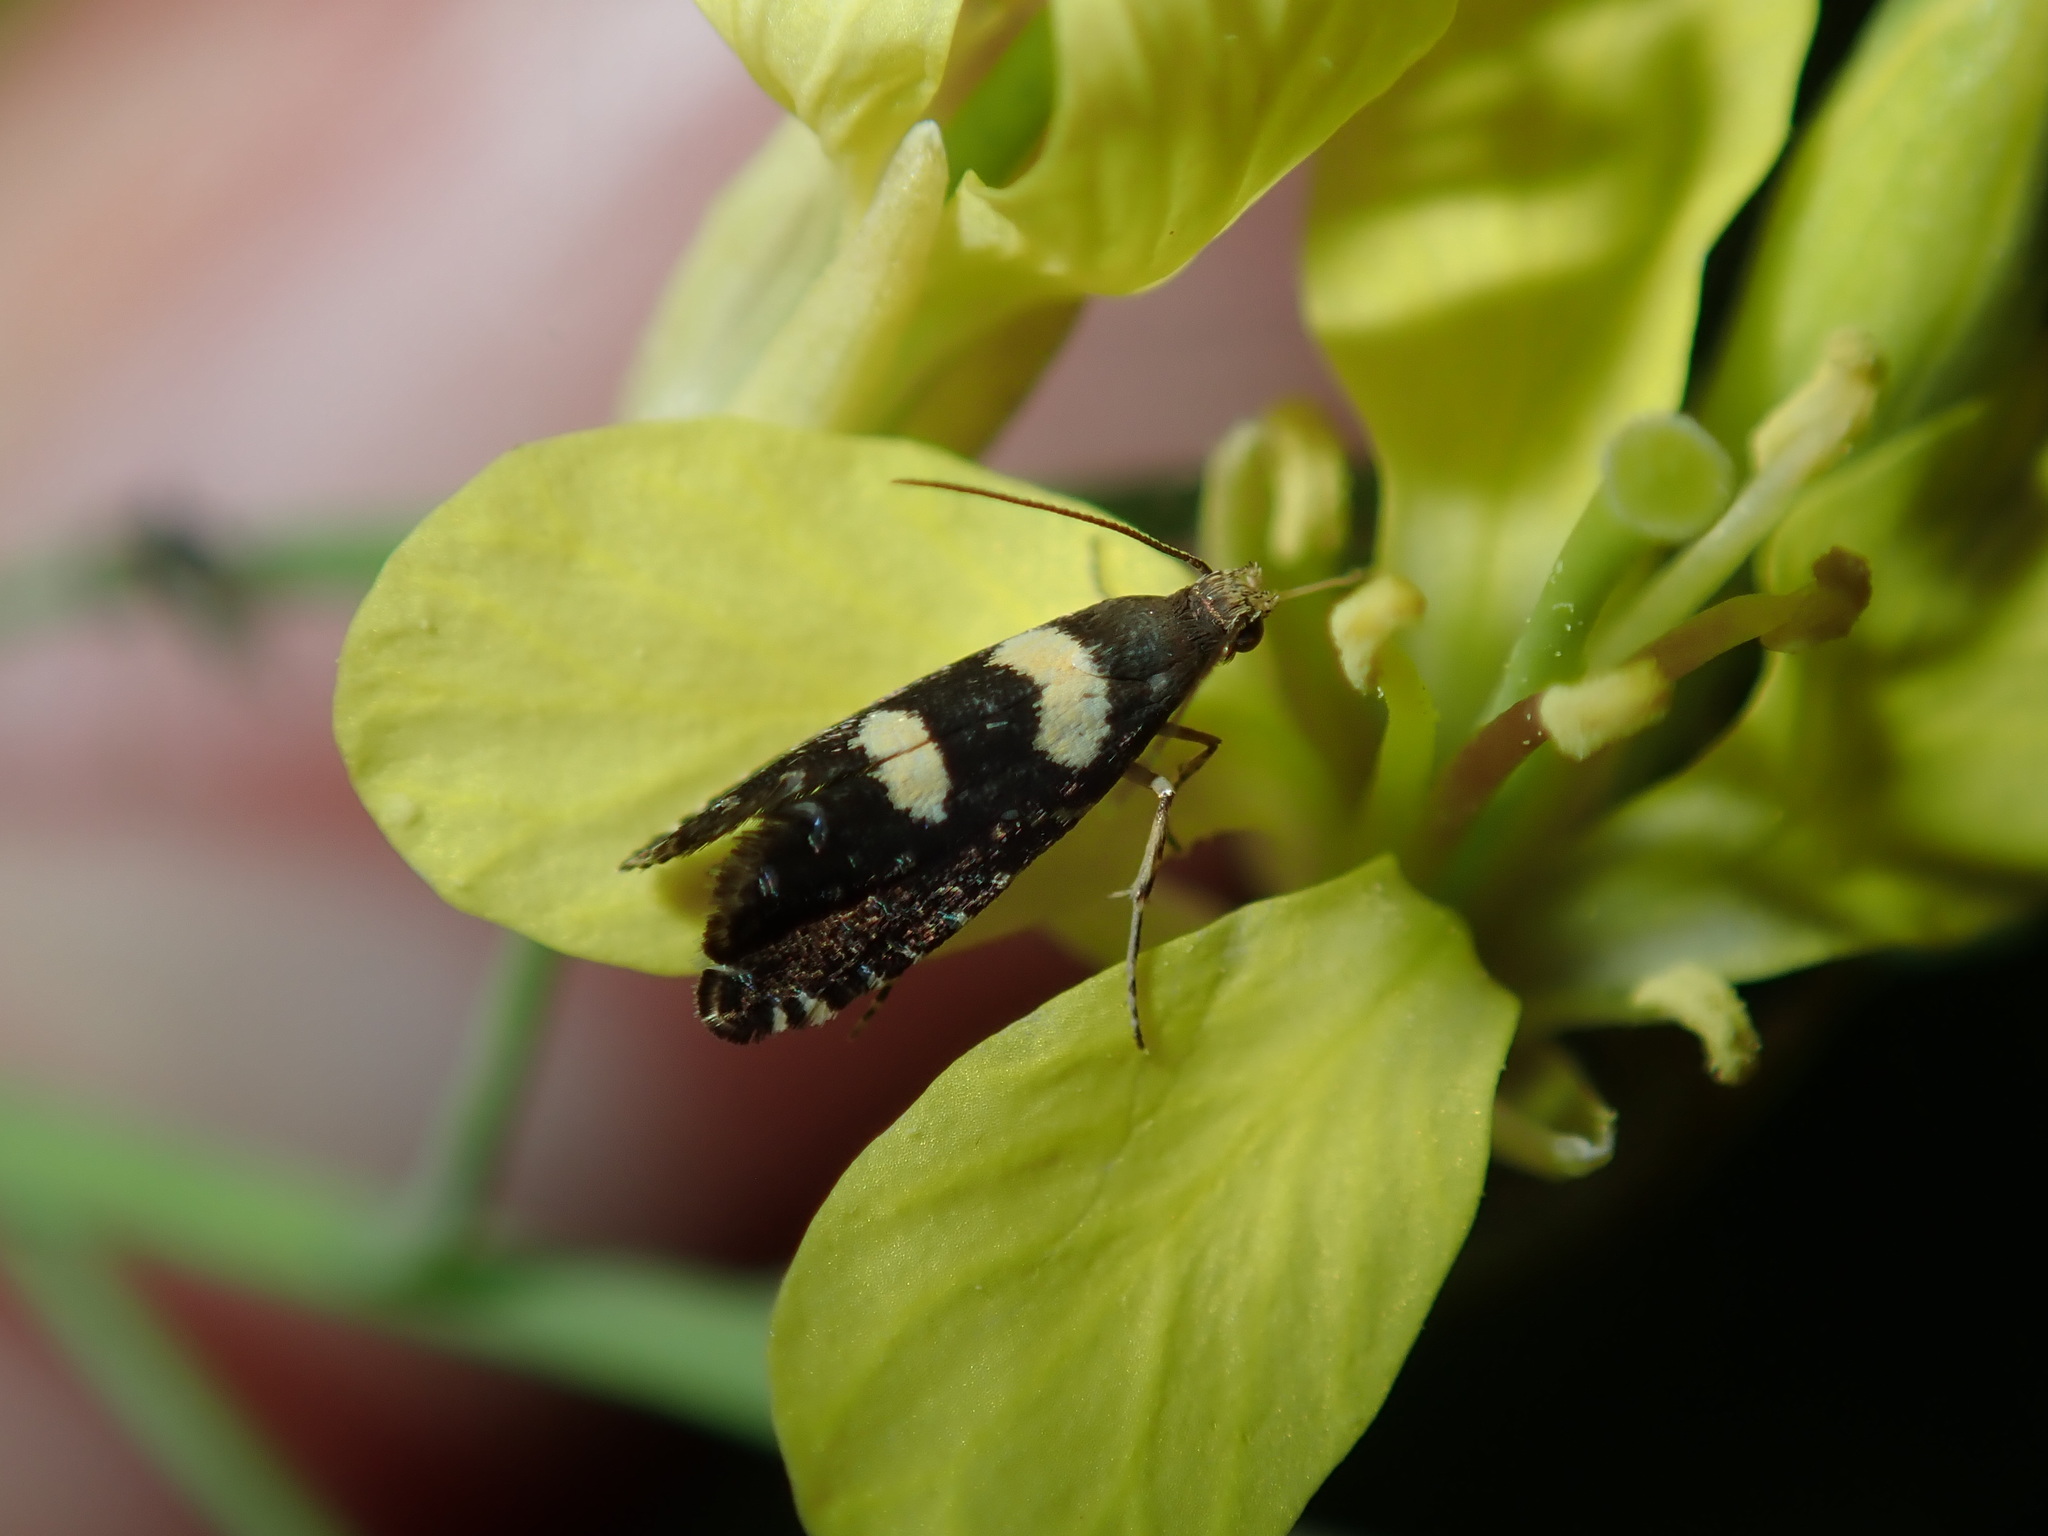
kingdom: Animalia
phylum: Arthropoda
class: Insecta
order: Lepidoptera
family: Glyphipterigidae
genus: Glyphipterix
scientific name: Glyphipterix chrysoplanetis
